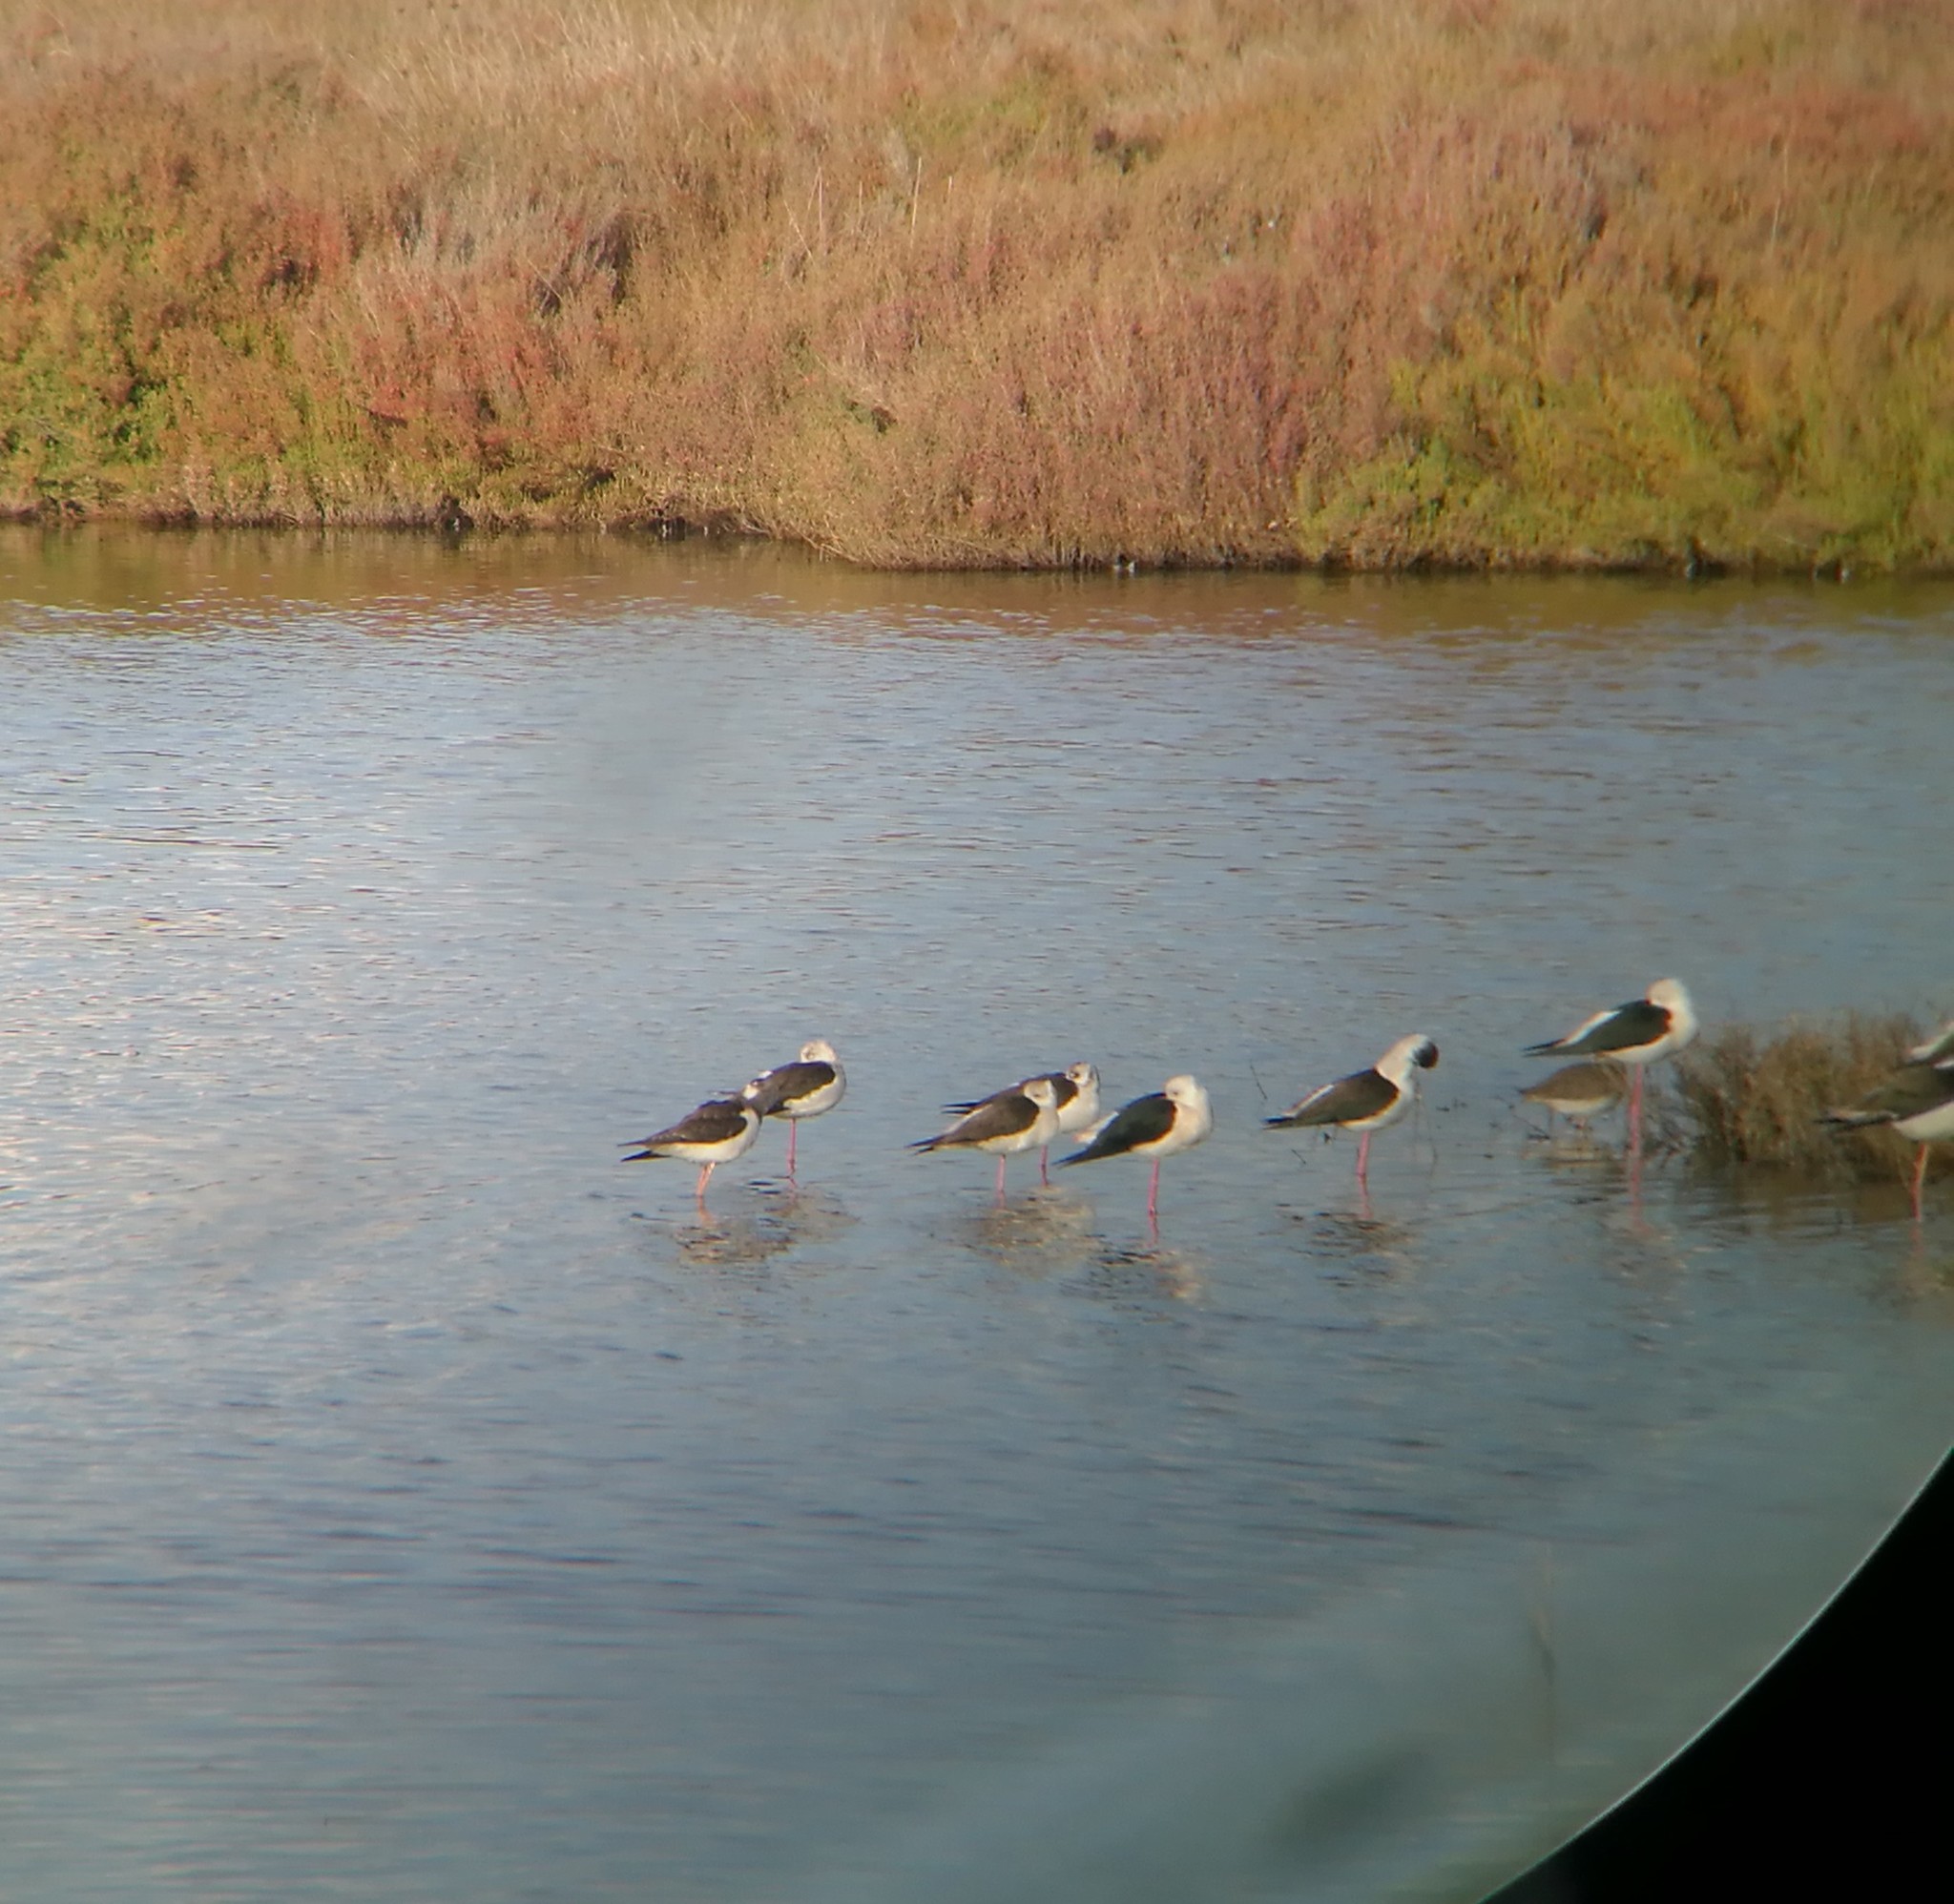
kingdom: Animalia
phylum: Chordata
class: Aves
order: Charadriiformes
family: Recurvirostridae
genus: Himantopus
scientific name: Himantopus himantopus
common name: Black-winged stilt
